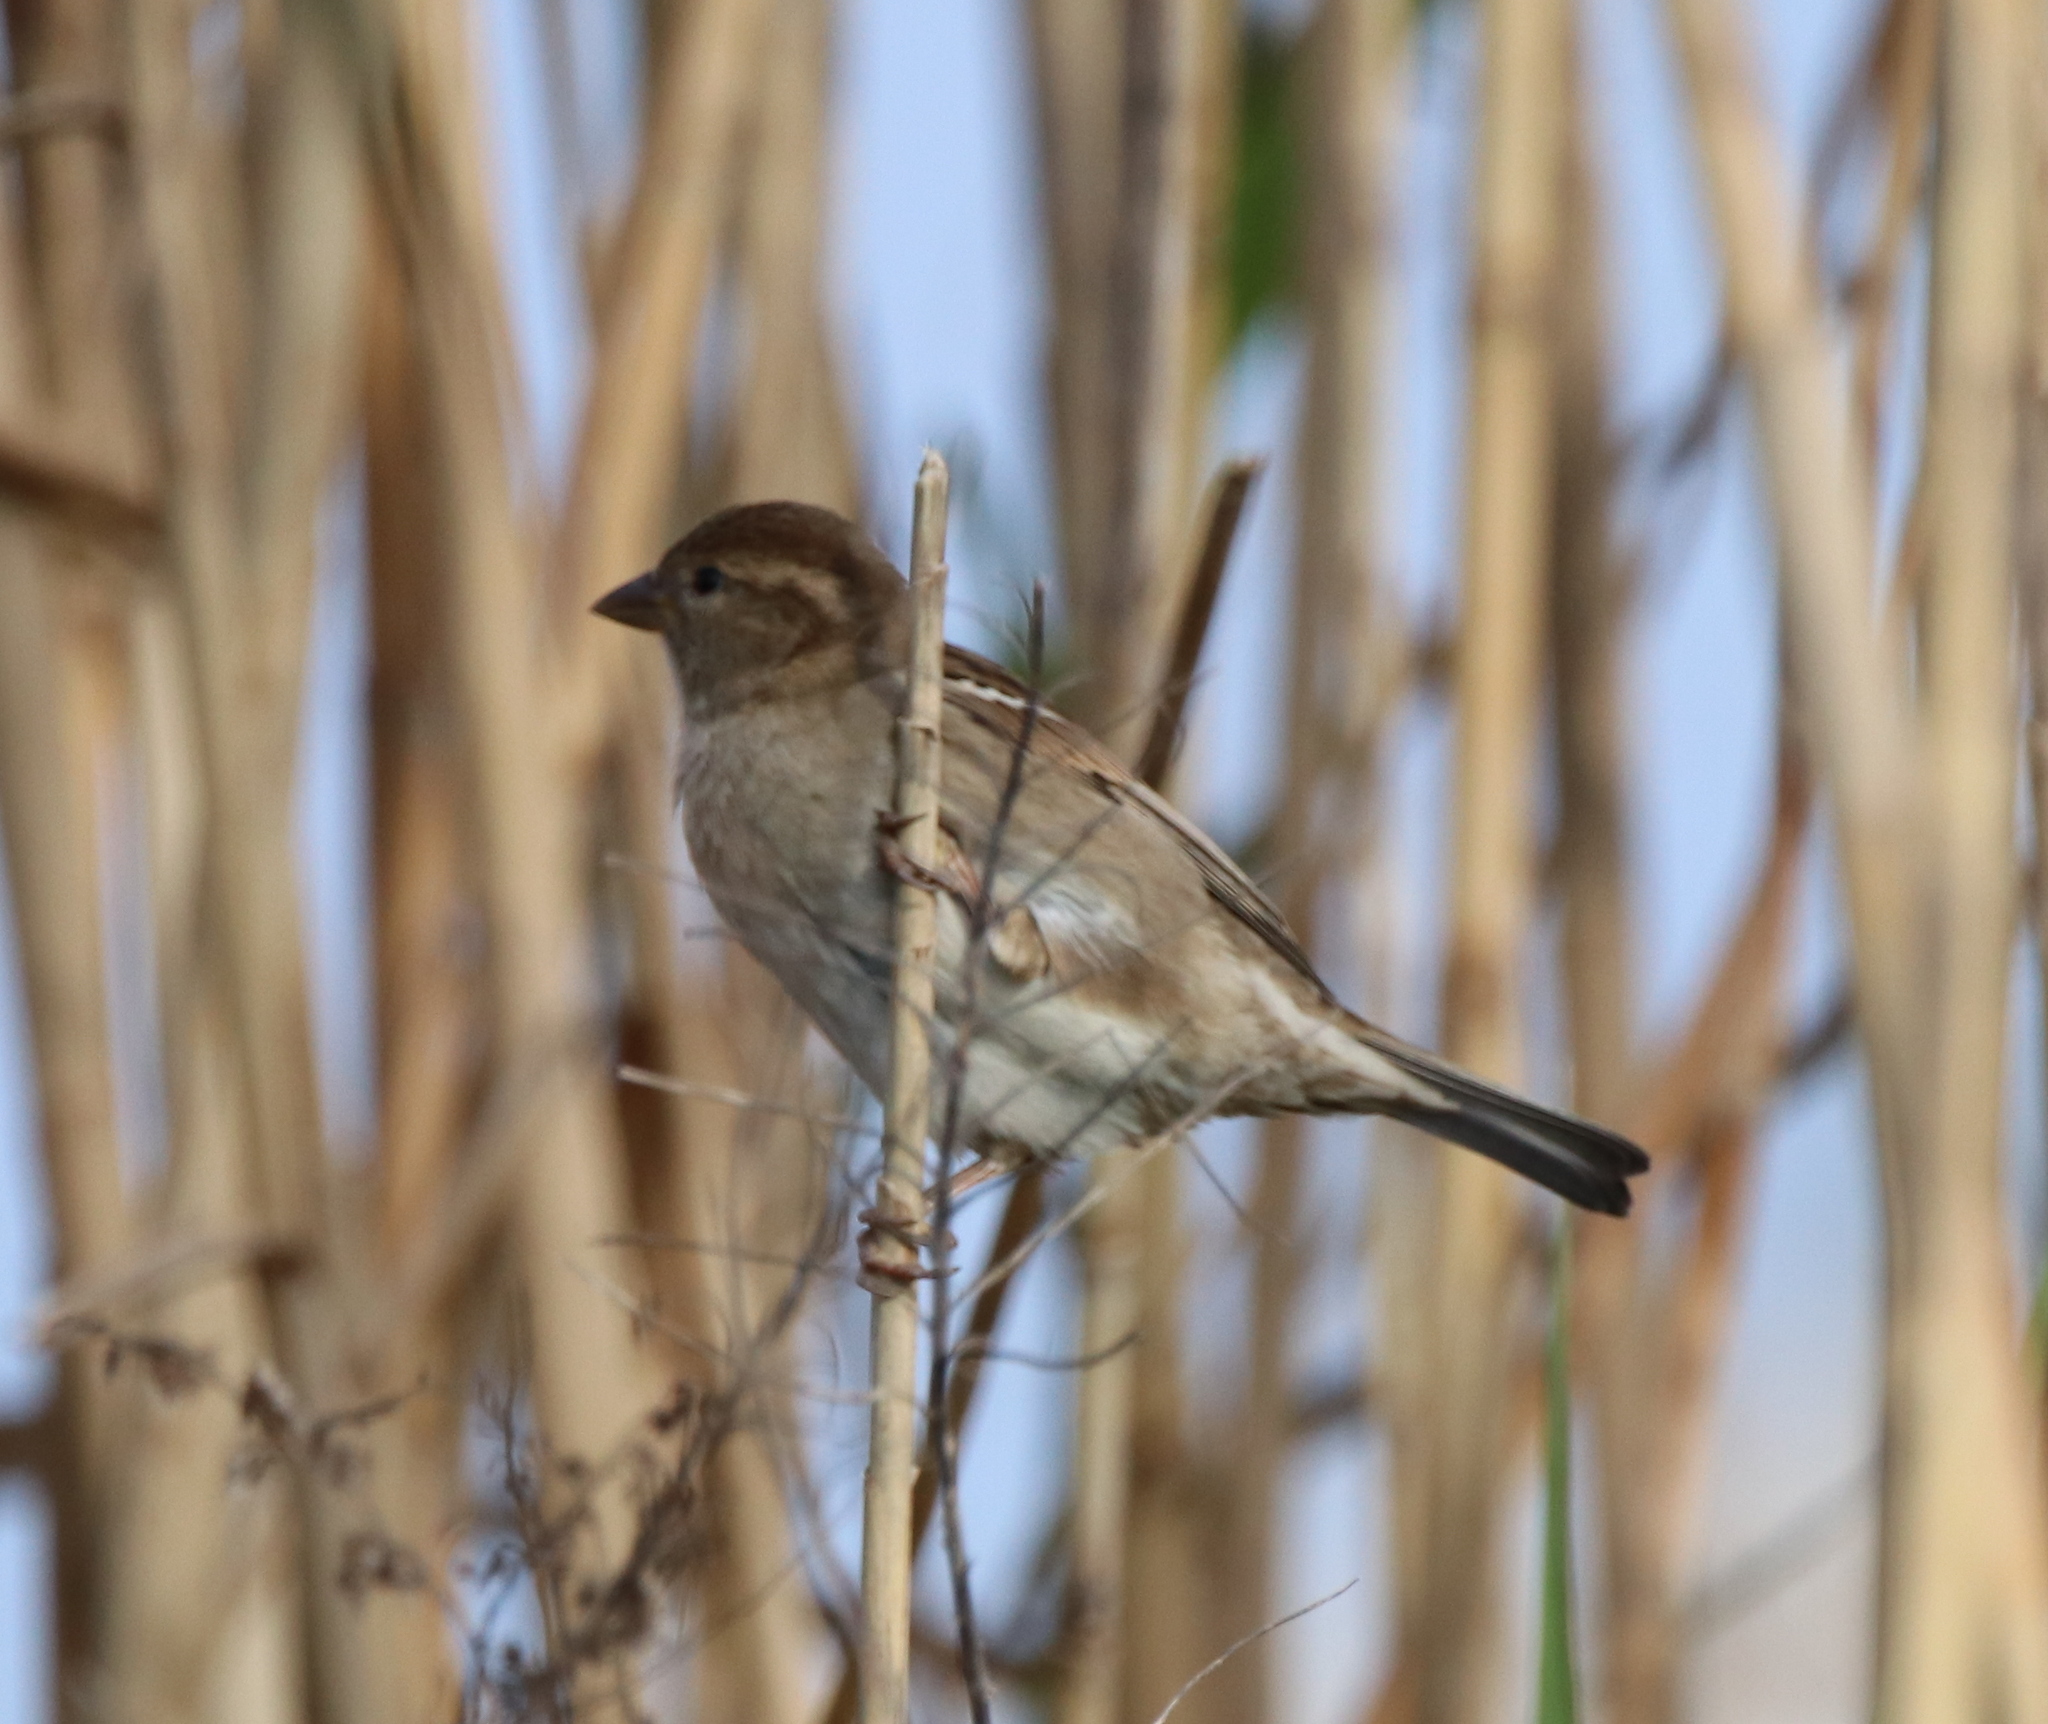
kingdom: Animalia
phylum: Chordata
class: Aves
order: Passeriformes
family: Passeridae
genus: Passer
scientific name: Passer domesticus
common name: House sparrow
